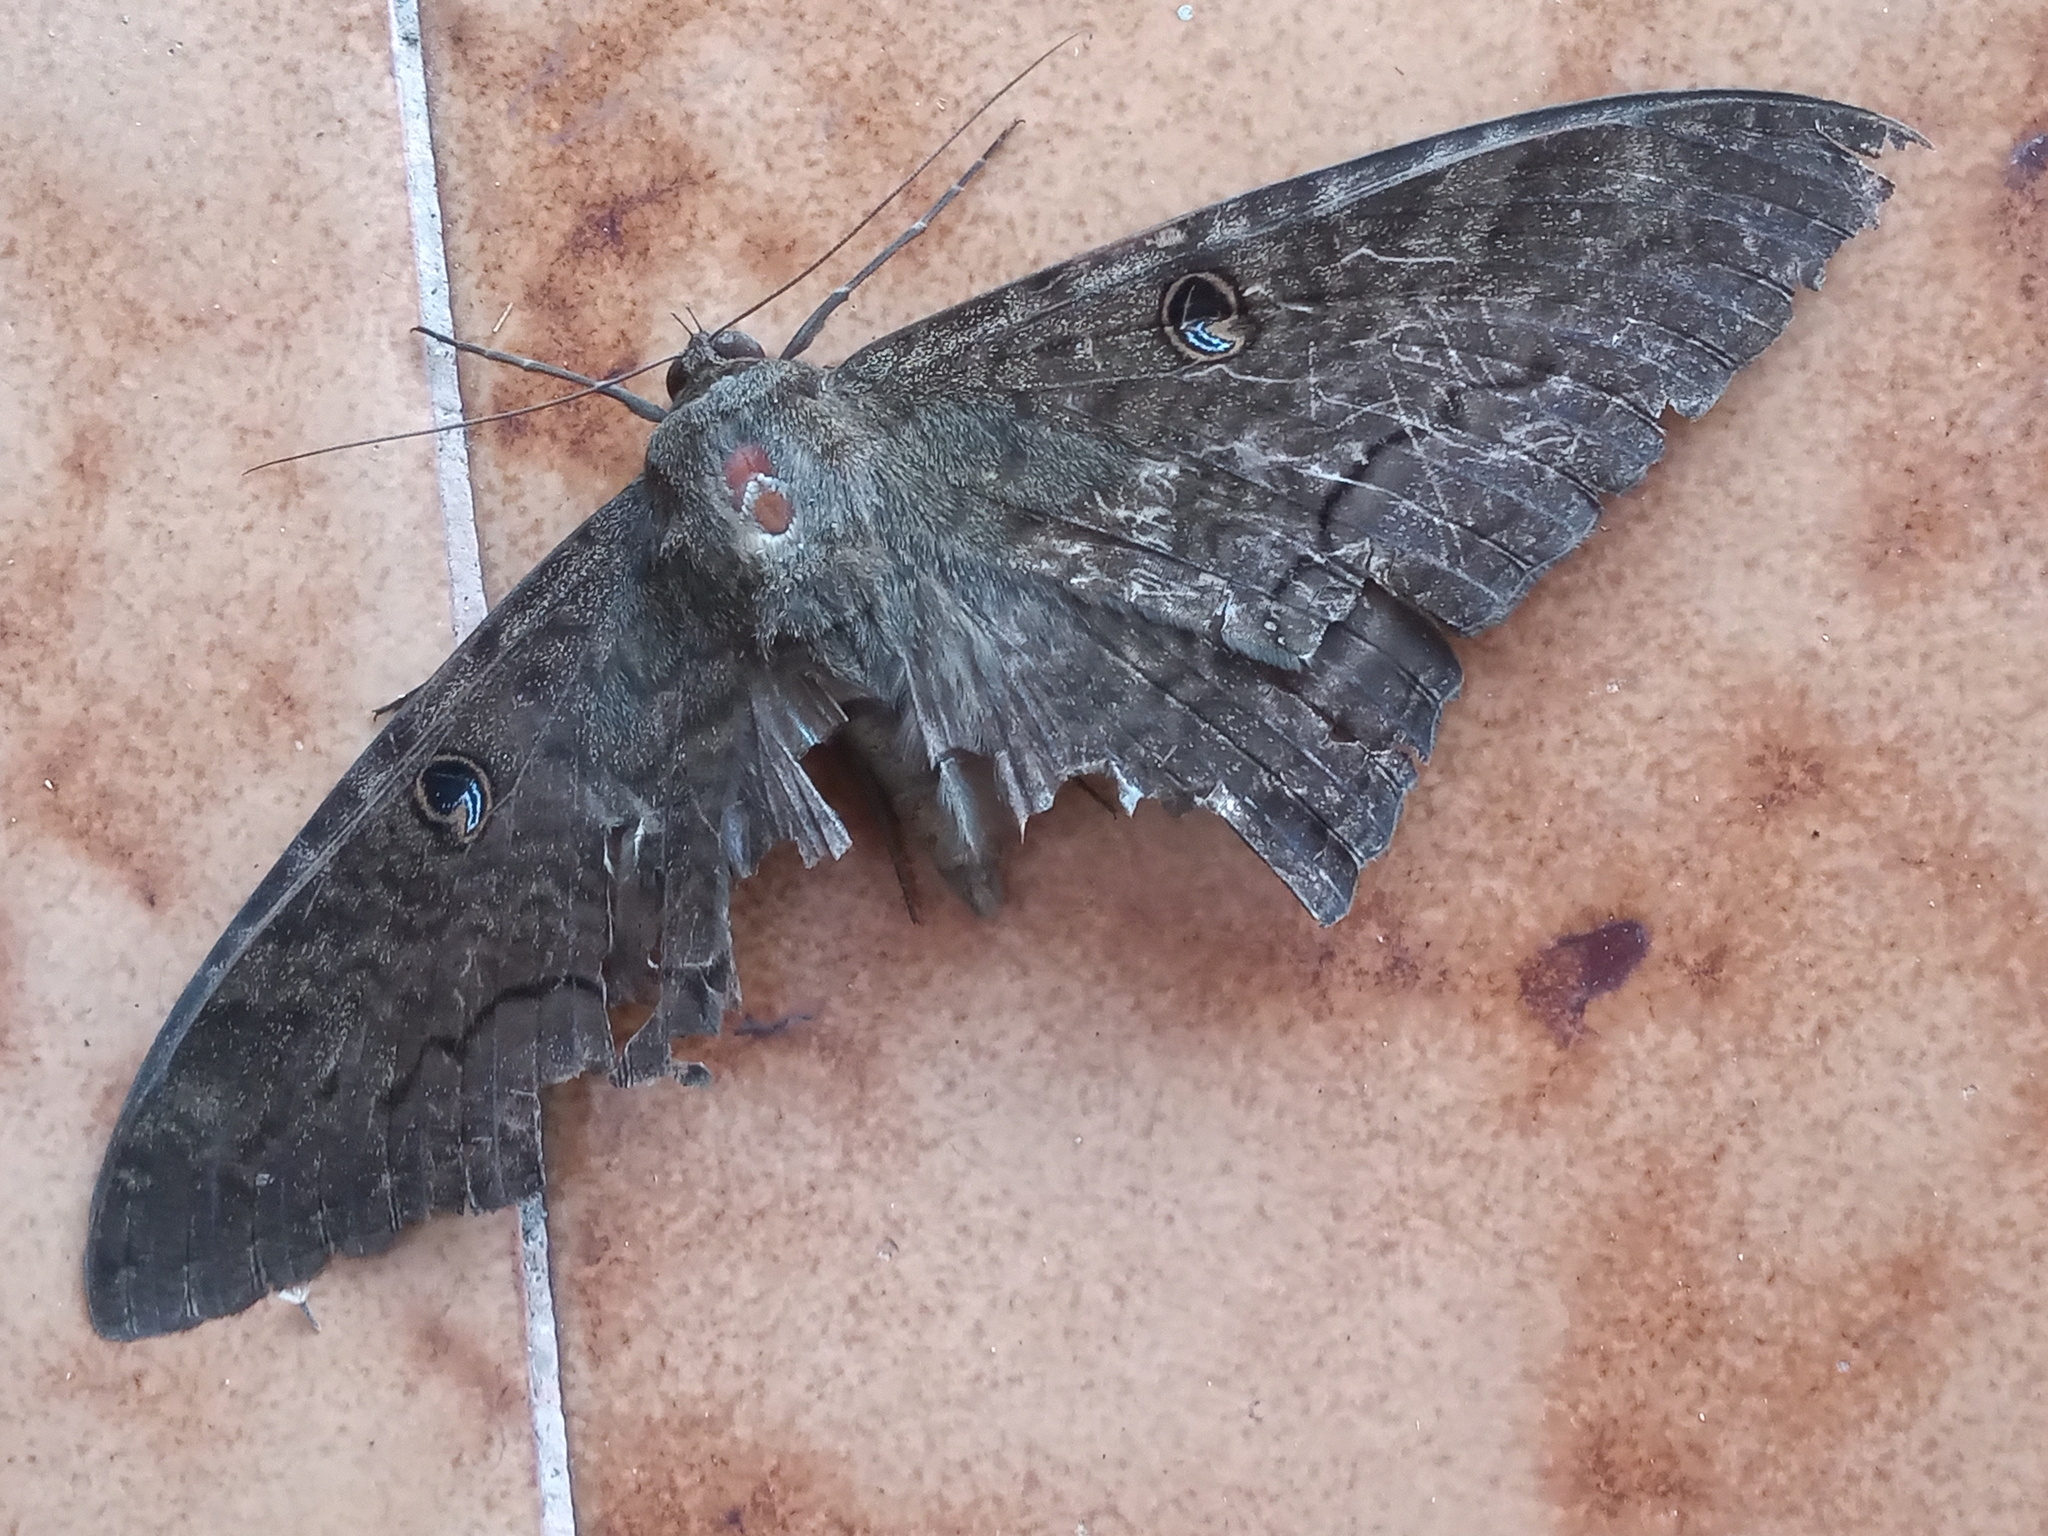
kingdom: Animalia
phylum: Arthropoda
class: Insecta
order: Lepidoptera
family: Erebidae
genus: Ascalapha
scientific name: Ascalapha odorata
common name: Black witch
